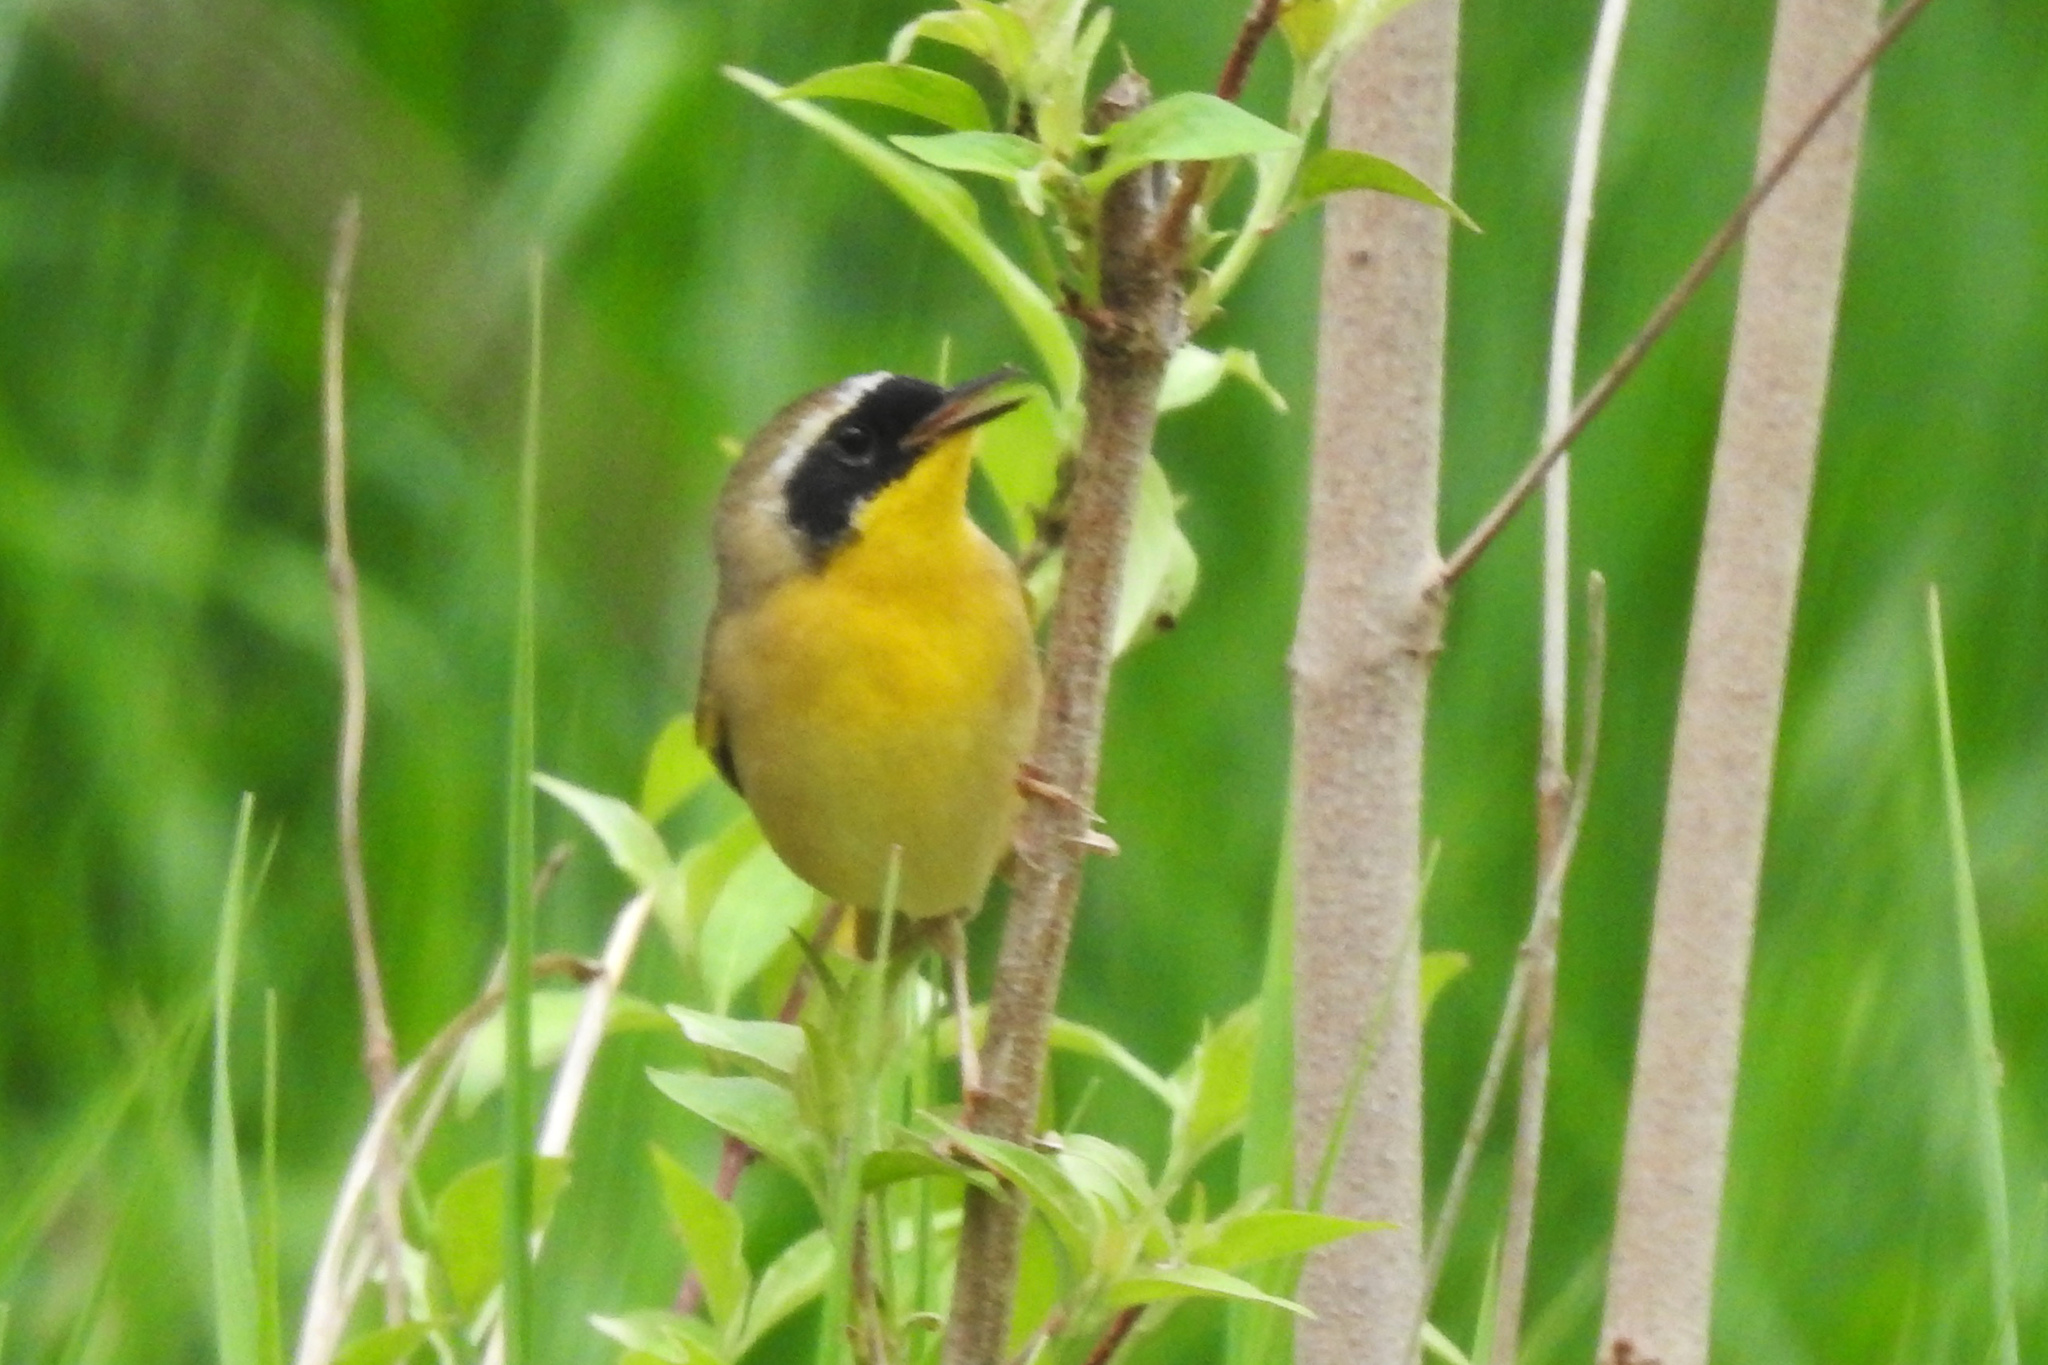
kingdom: Animalia
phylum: Chordata
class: Aves
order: Passeriformes
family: Parulidae
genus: Geothlypis
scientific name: Geothlypis trichas
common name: Common yellowthroat
